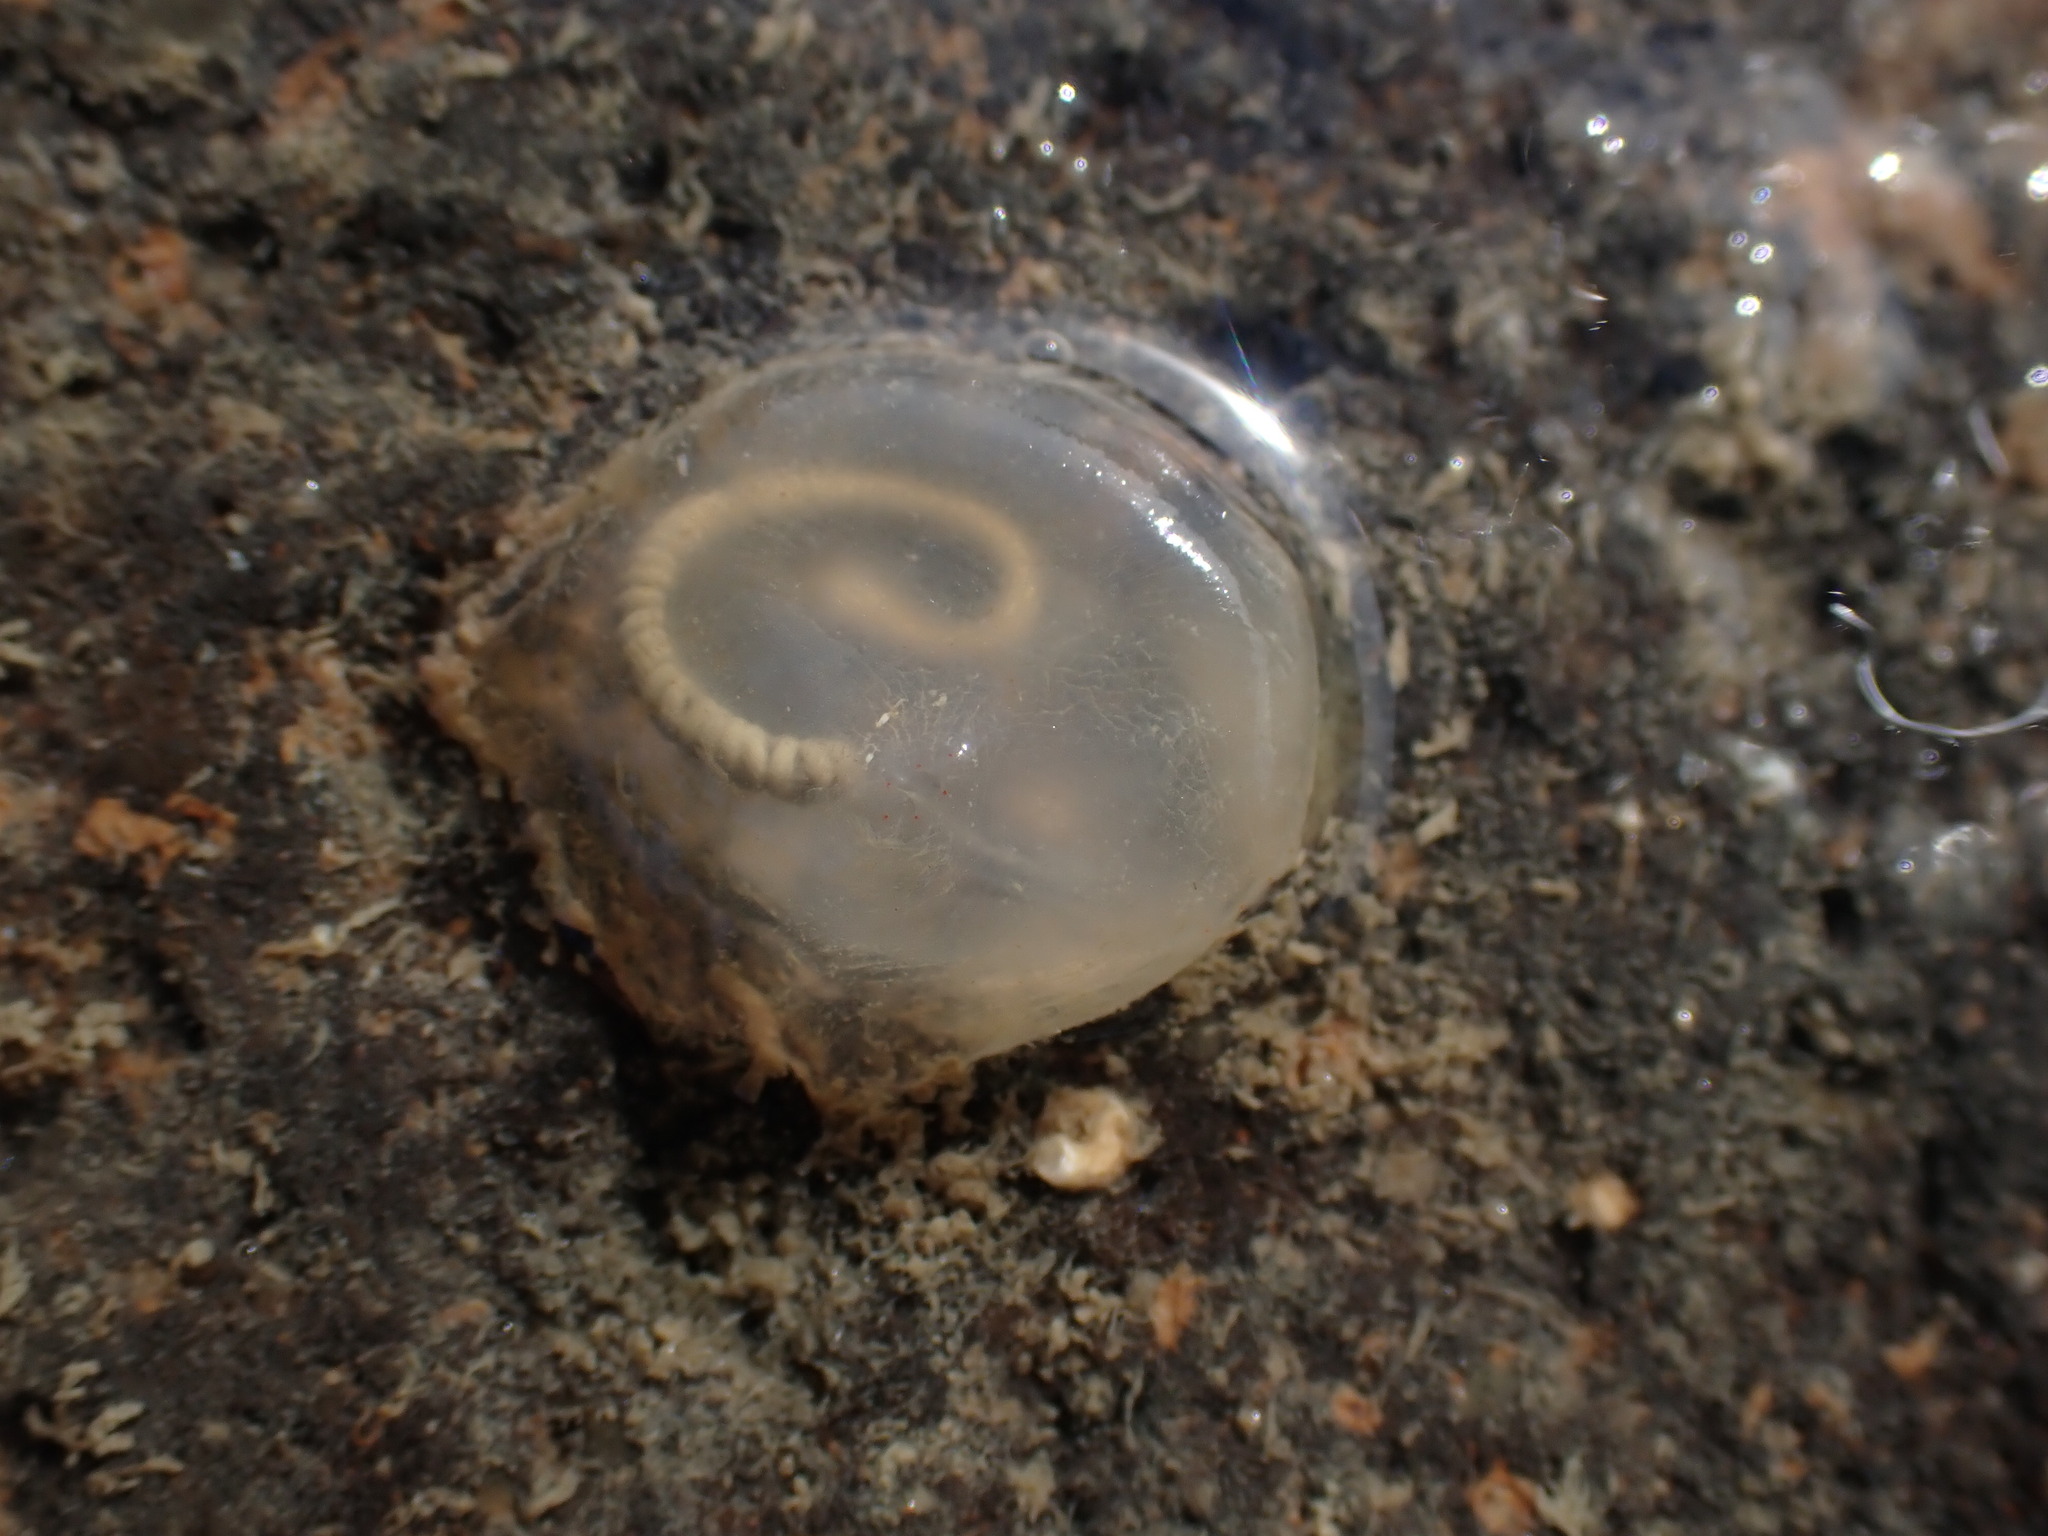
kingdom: Animalia
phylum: Chordata
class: Ascidiacea
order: Phlebobranchia
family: Agneziidae
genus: Agnezia
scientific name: Agnezia glaciata
